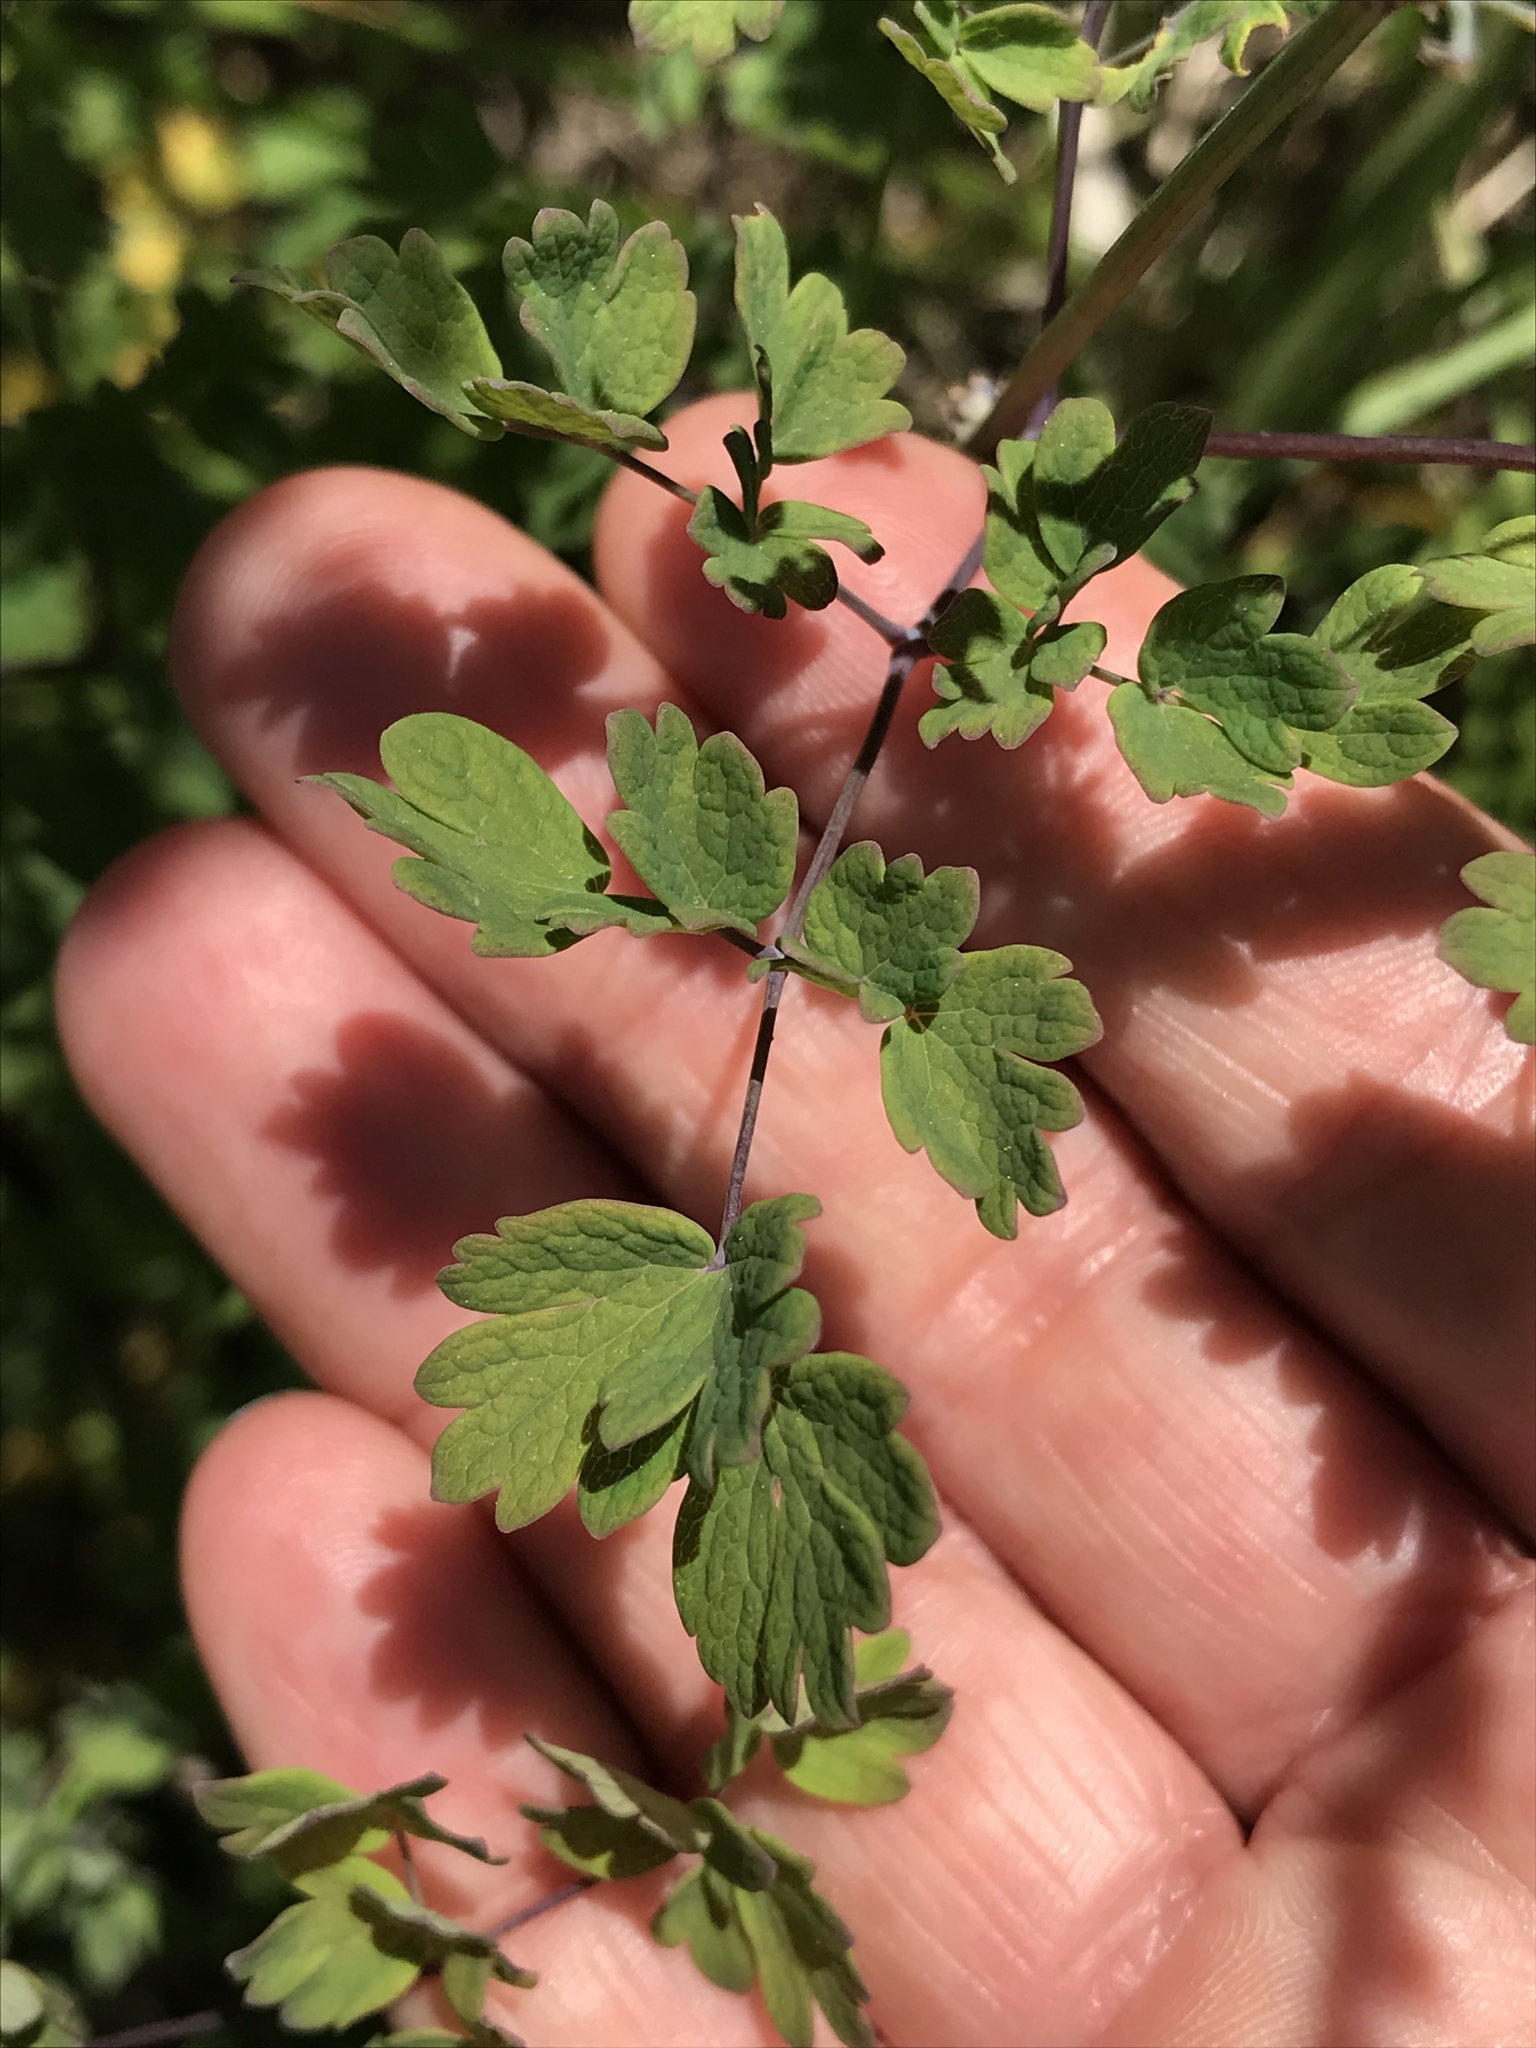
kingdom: Plantae
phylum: Tracheophyta
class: Magnoliopsida
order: Ranunculales
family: Ranunculaceae
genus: Thalictrum
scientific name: Thalictrum fendleri
